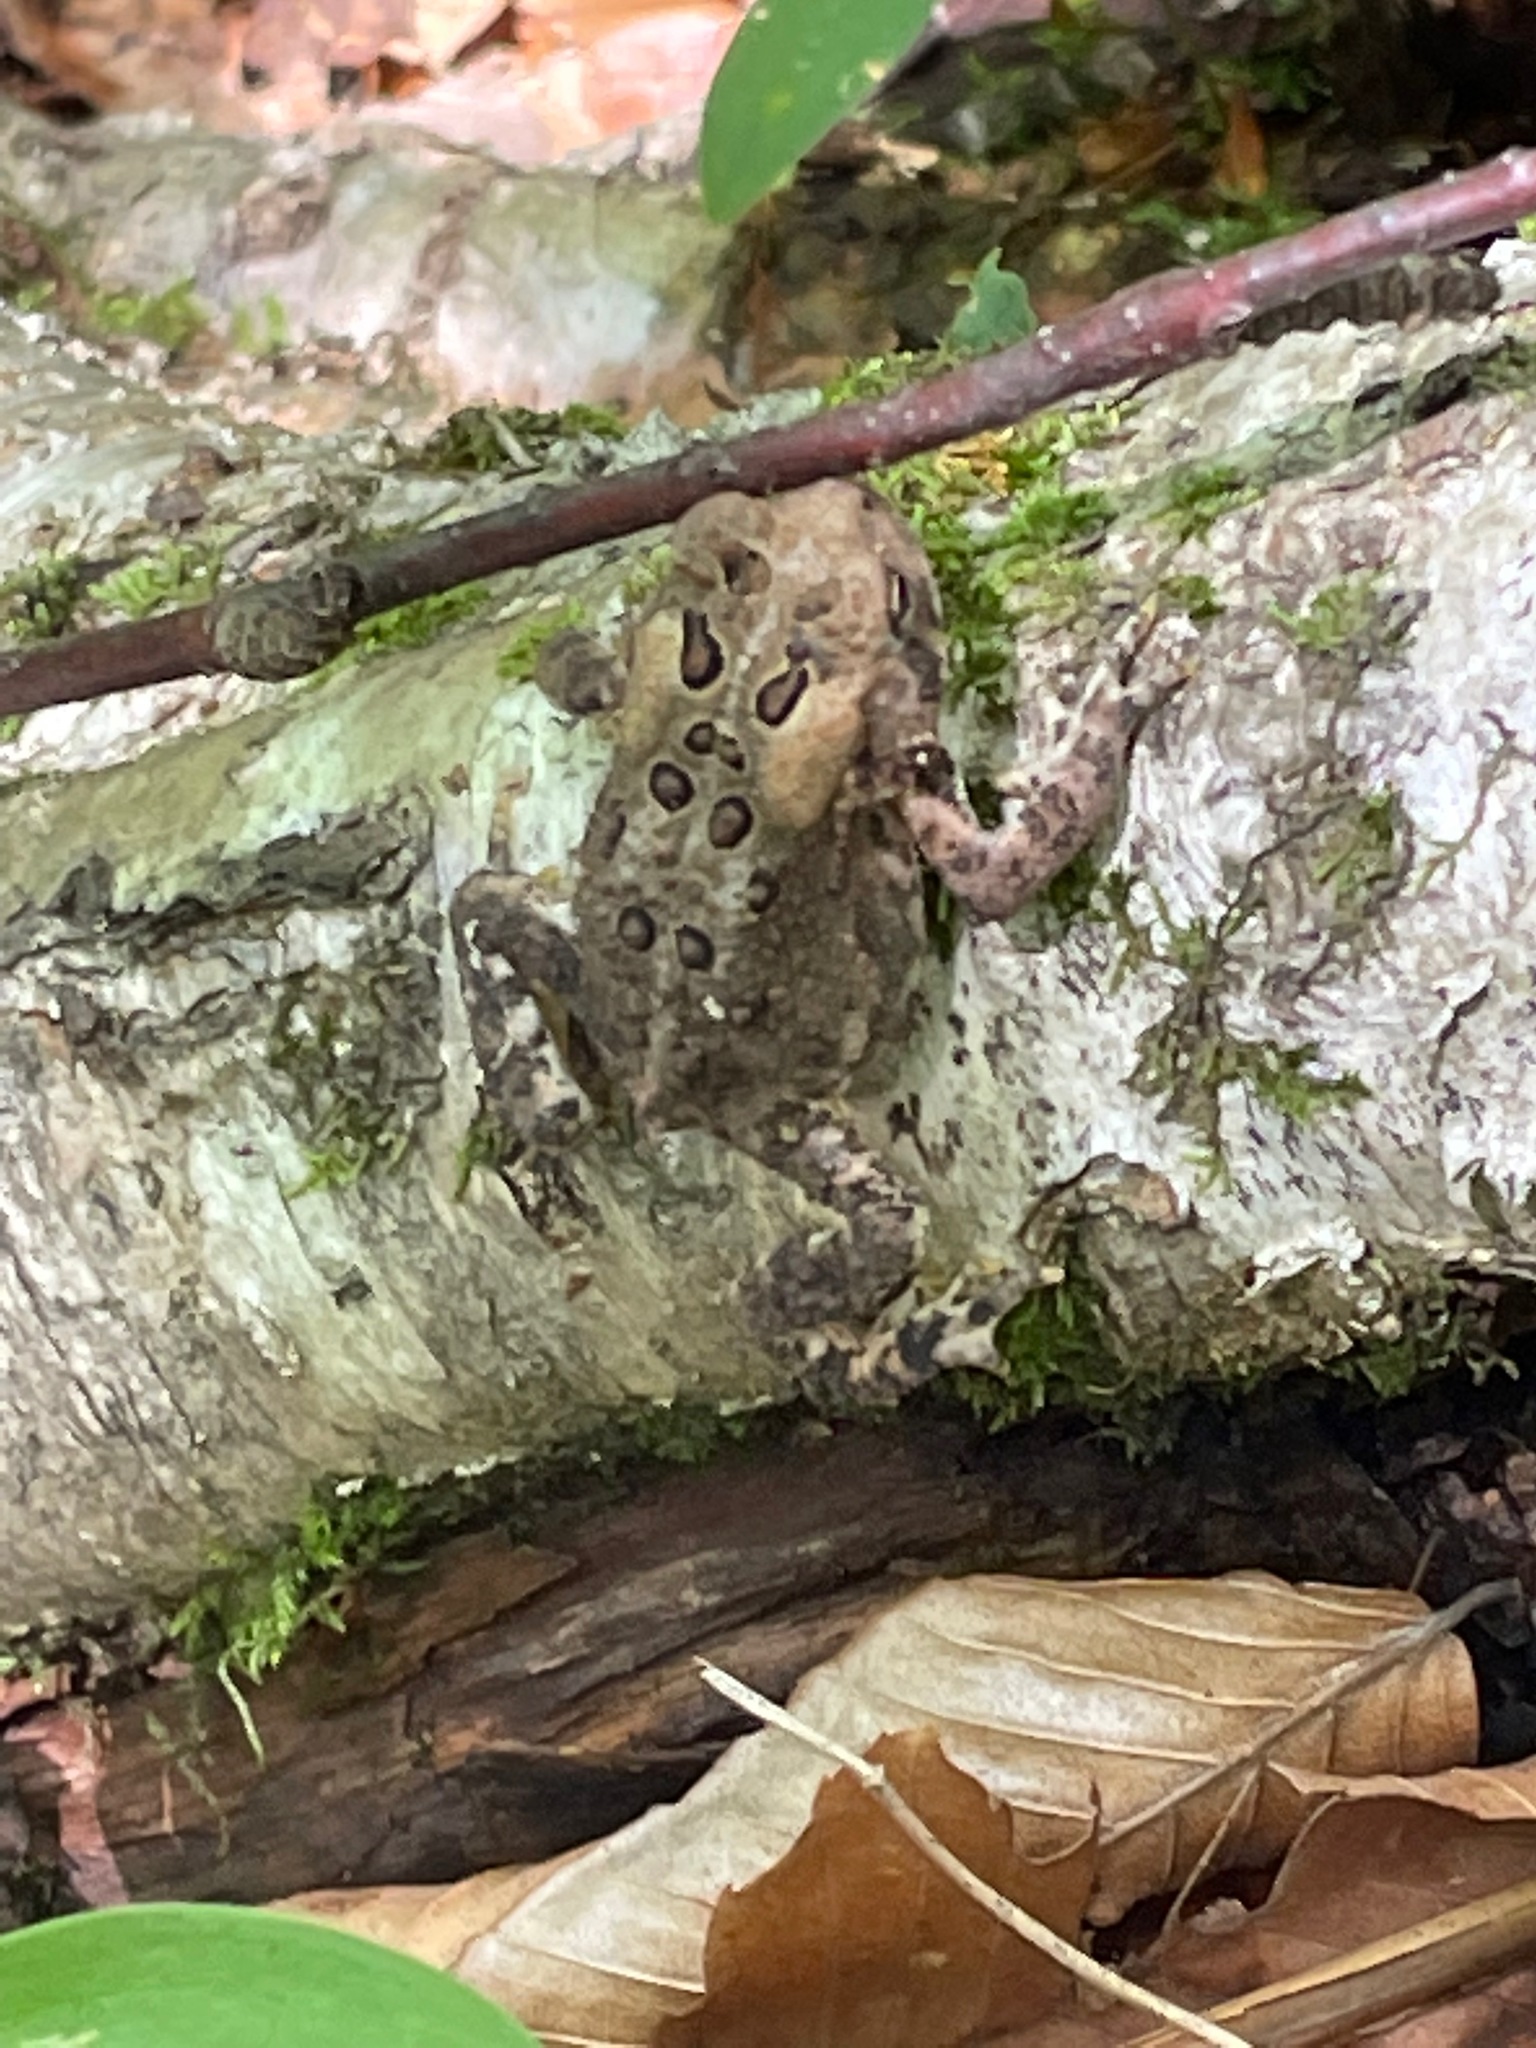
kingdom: Animalia
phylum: Chordata
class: Amphibia
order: Anura
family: Bufonidae
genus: Anaxyrus
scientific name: Anaxyrus americanus
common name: American toad
